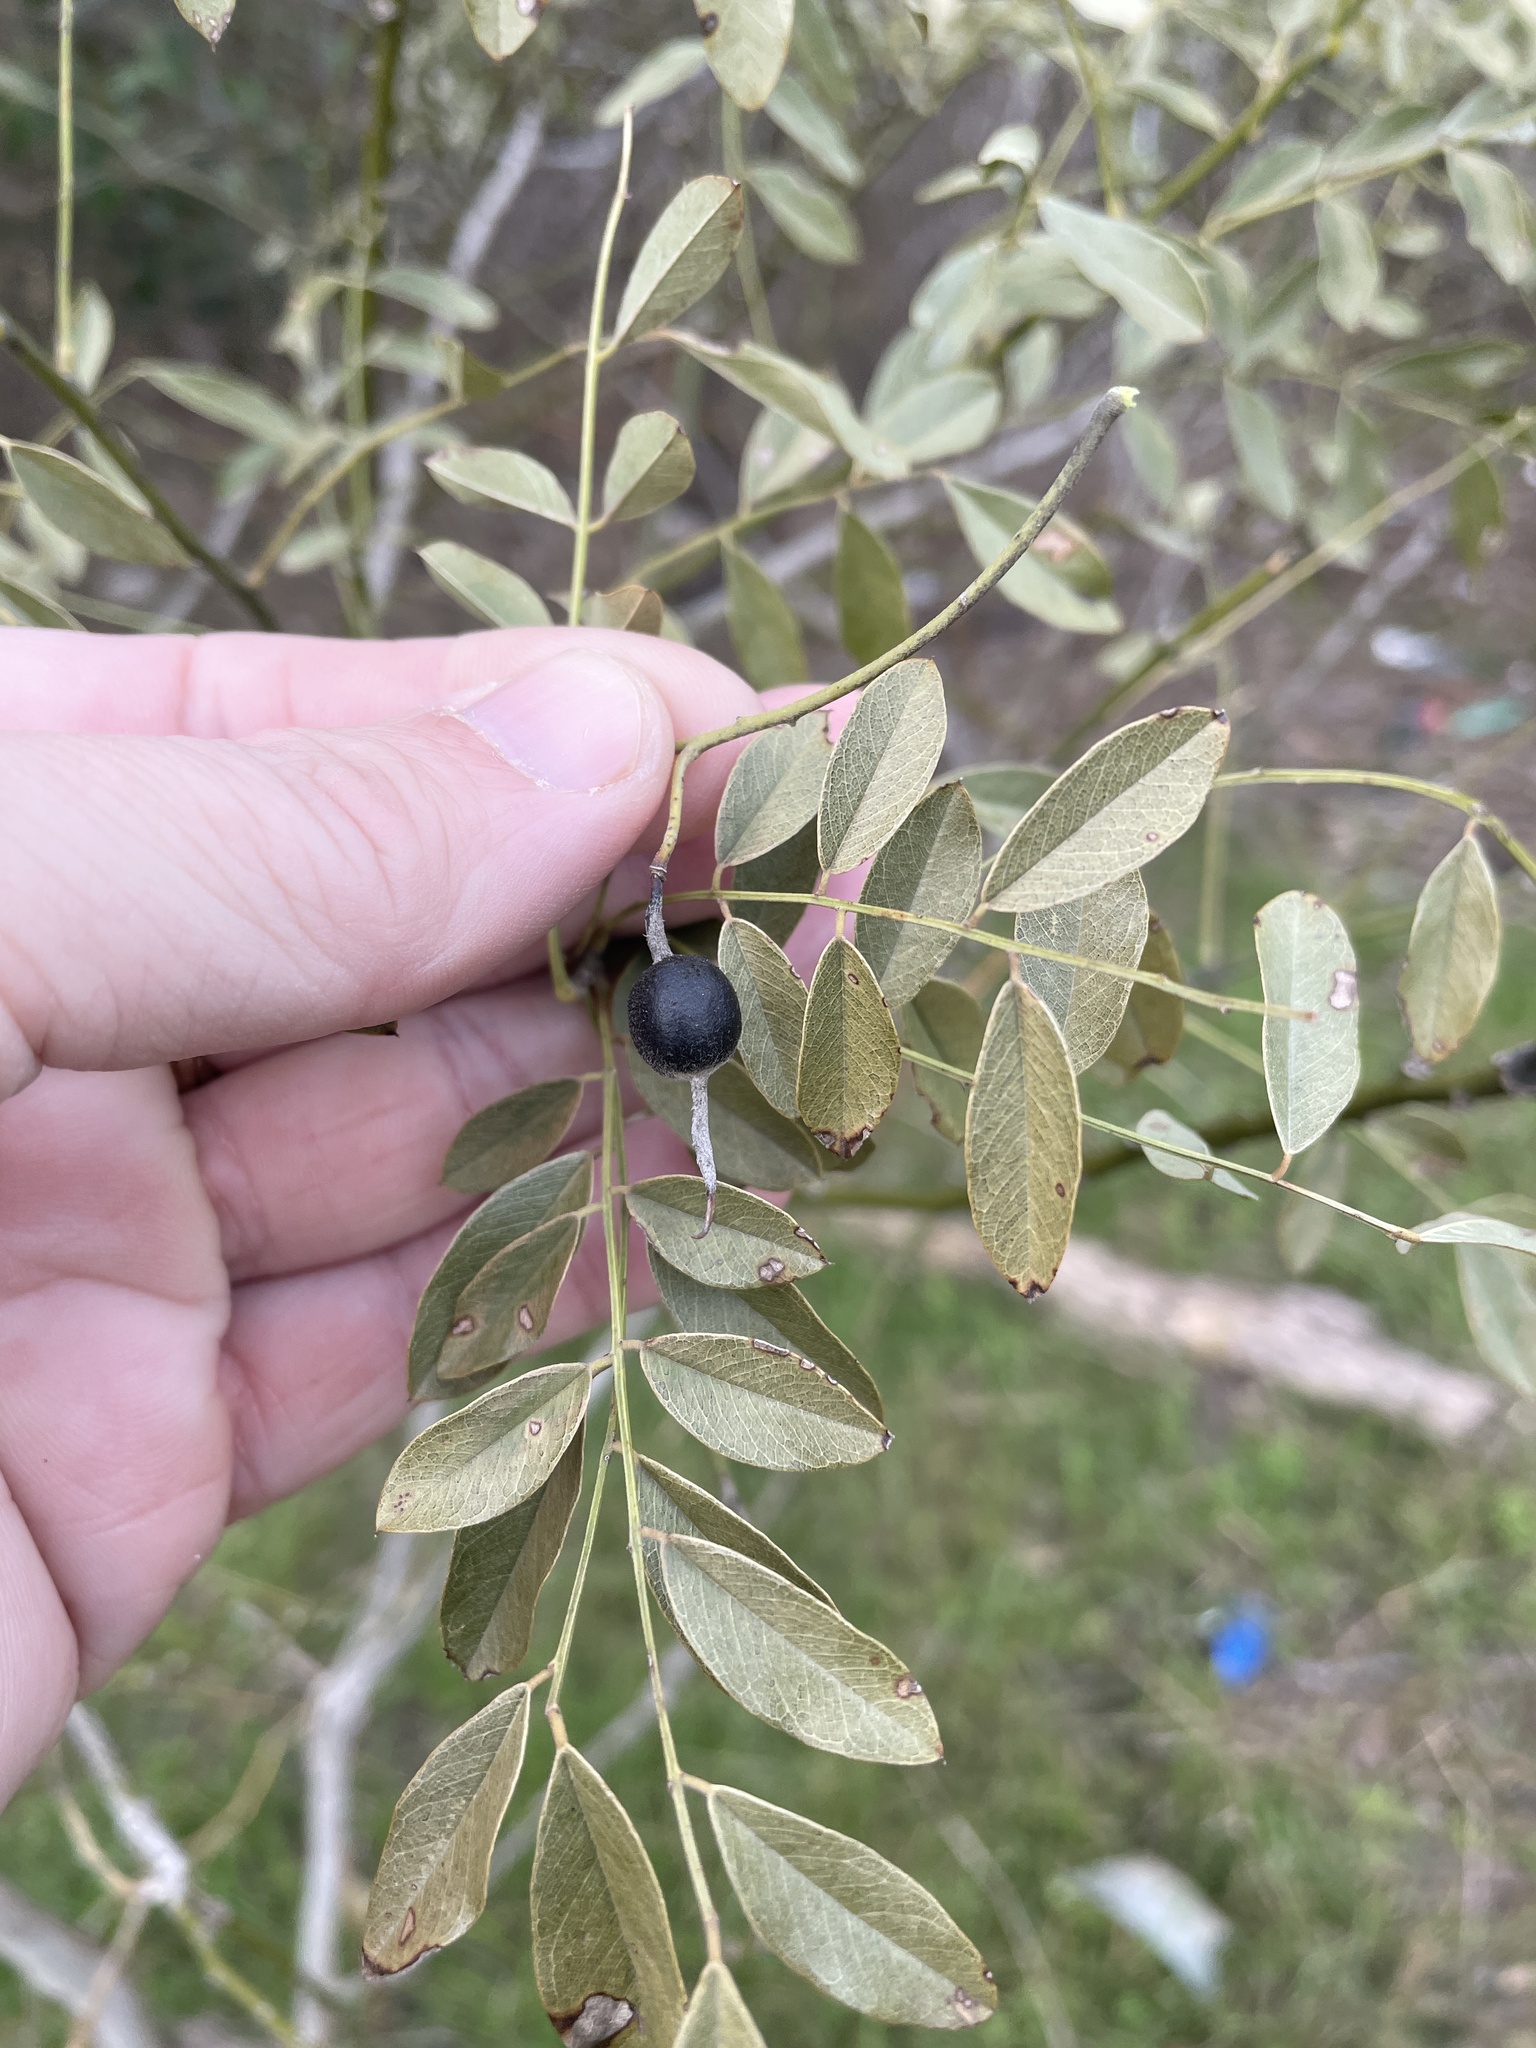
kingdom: Plantae
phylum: Tracheophyta
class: Magnoliopsida
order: Fabales
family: Fabaceae
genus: Styphnolobium
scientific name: Styphnolobium affine
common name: Texas sophora
